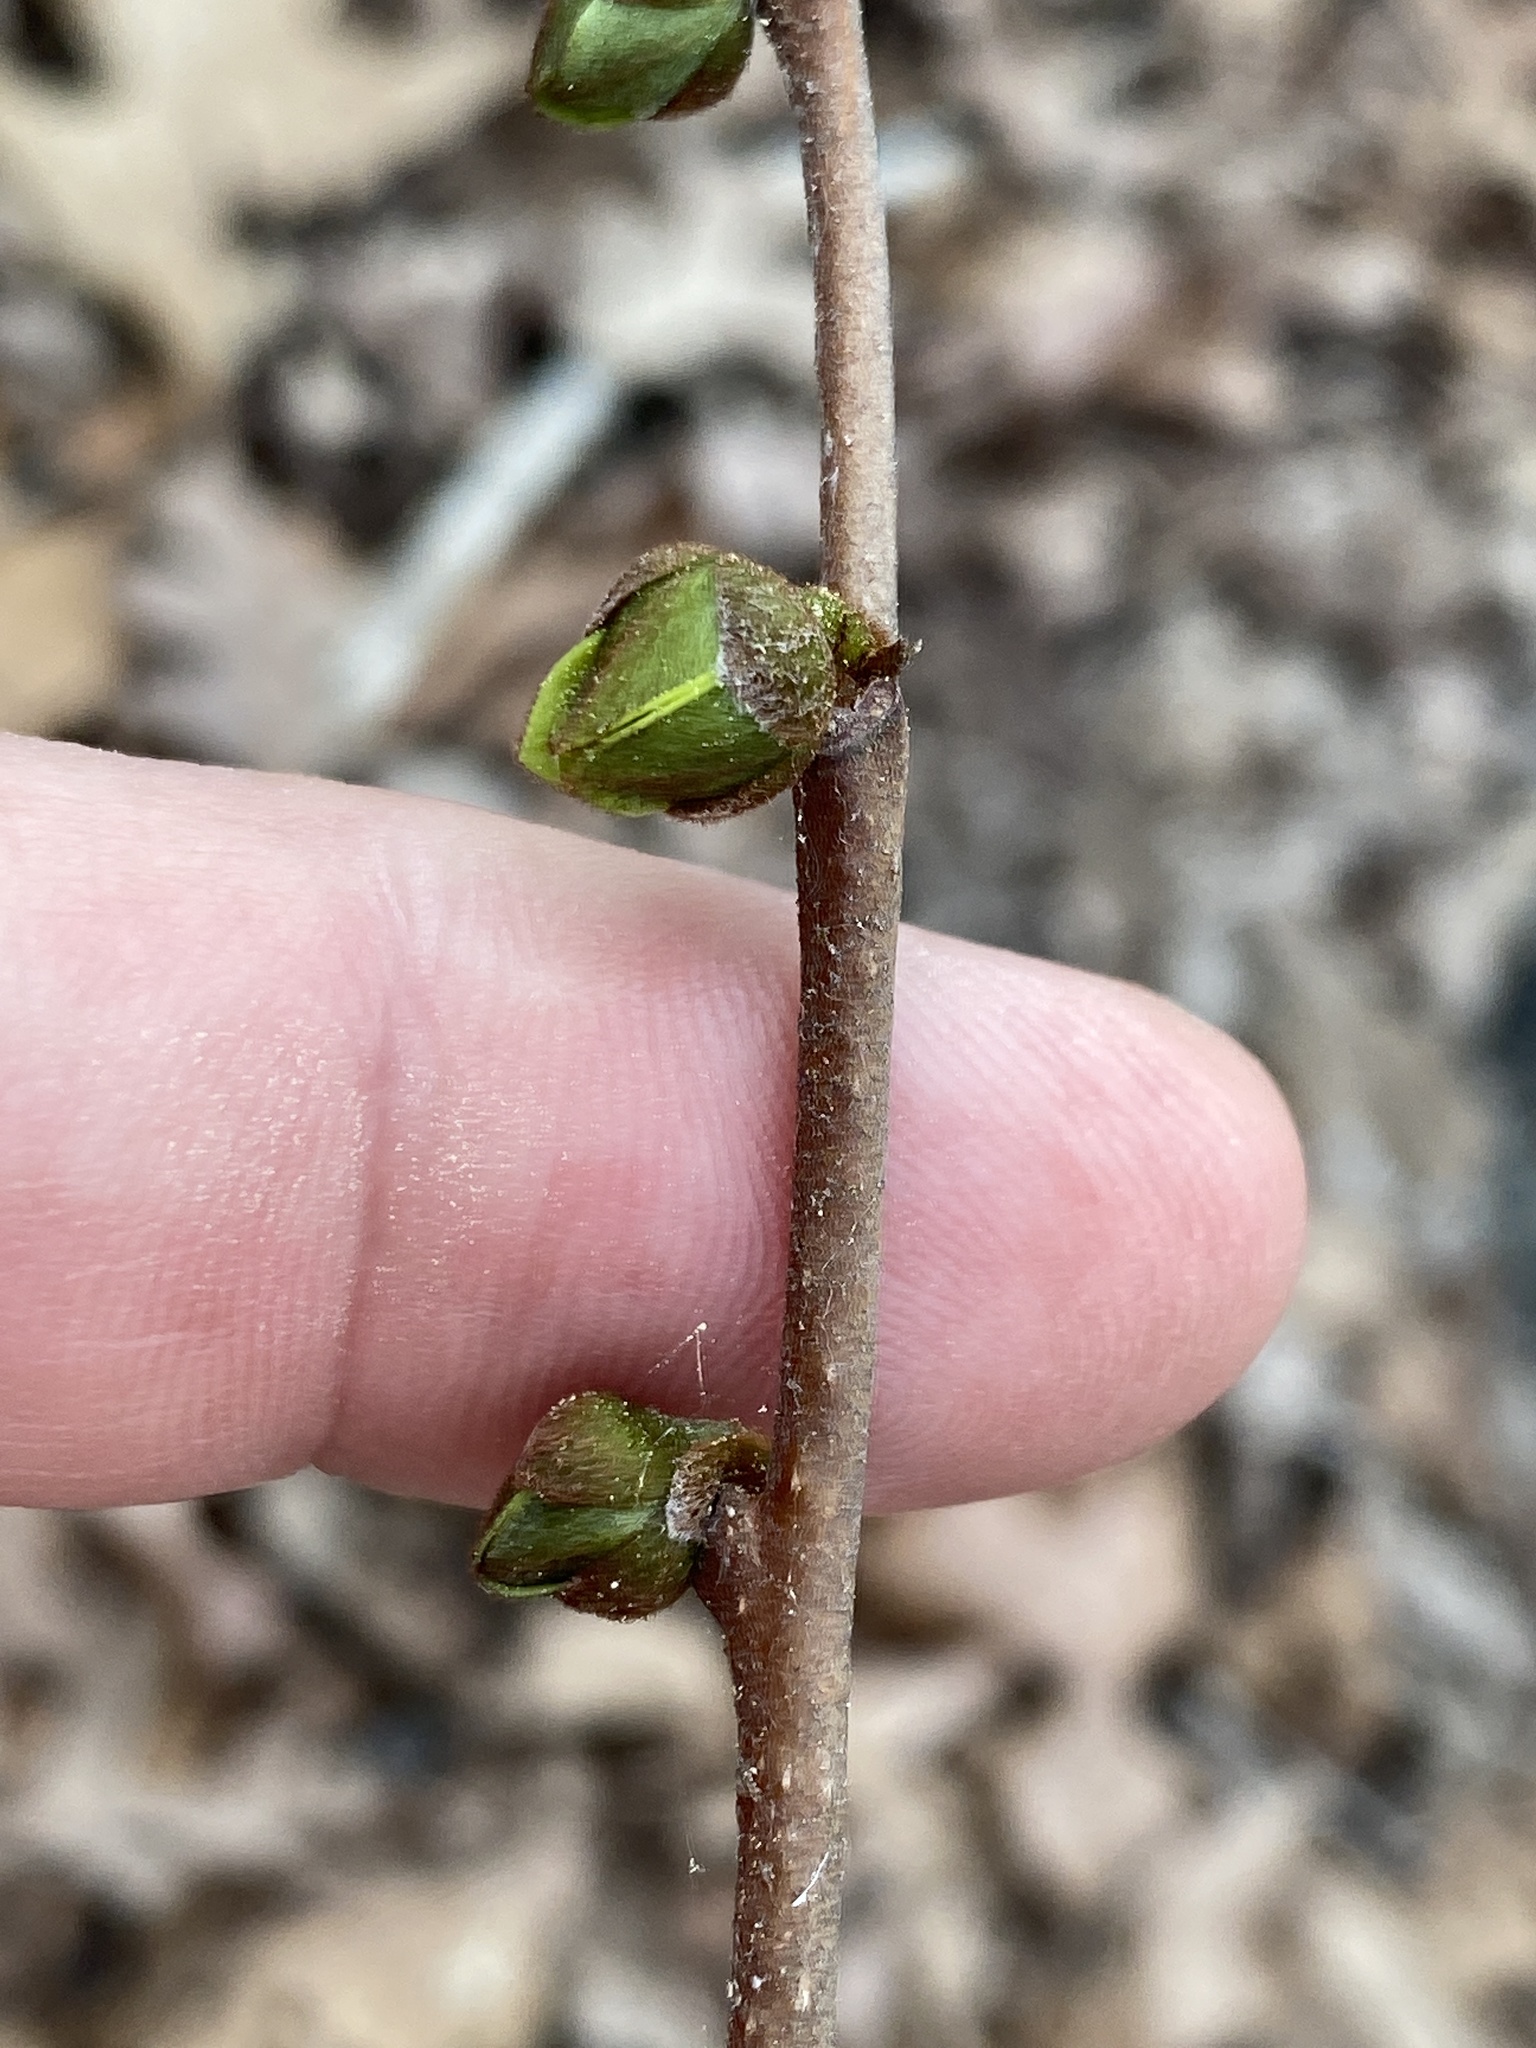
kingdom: Plantae
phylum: Tracheophyta
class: Magnoliopsida
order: Magnoliales
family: Annonaceae
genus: Asimina
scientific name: Asimina parviflora
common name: Dwarf pawpaw
